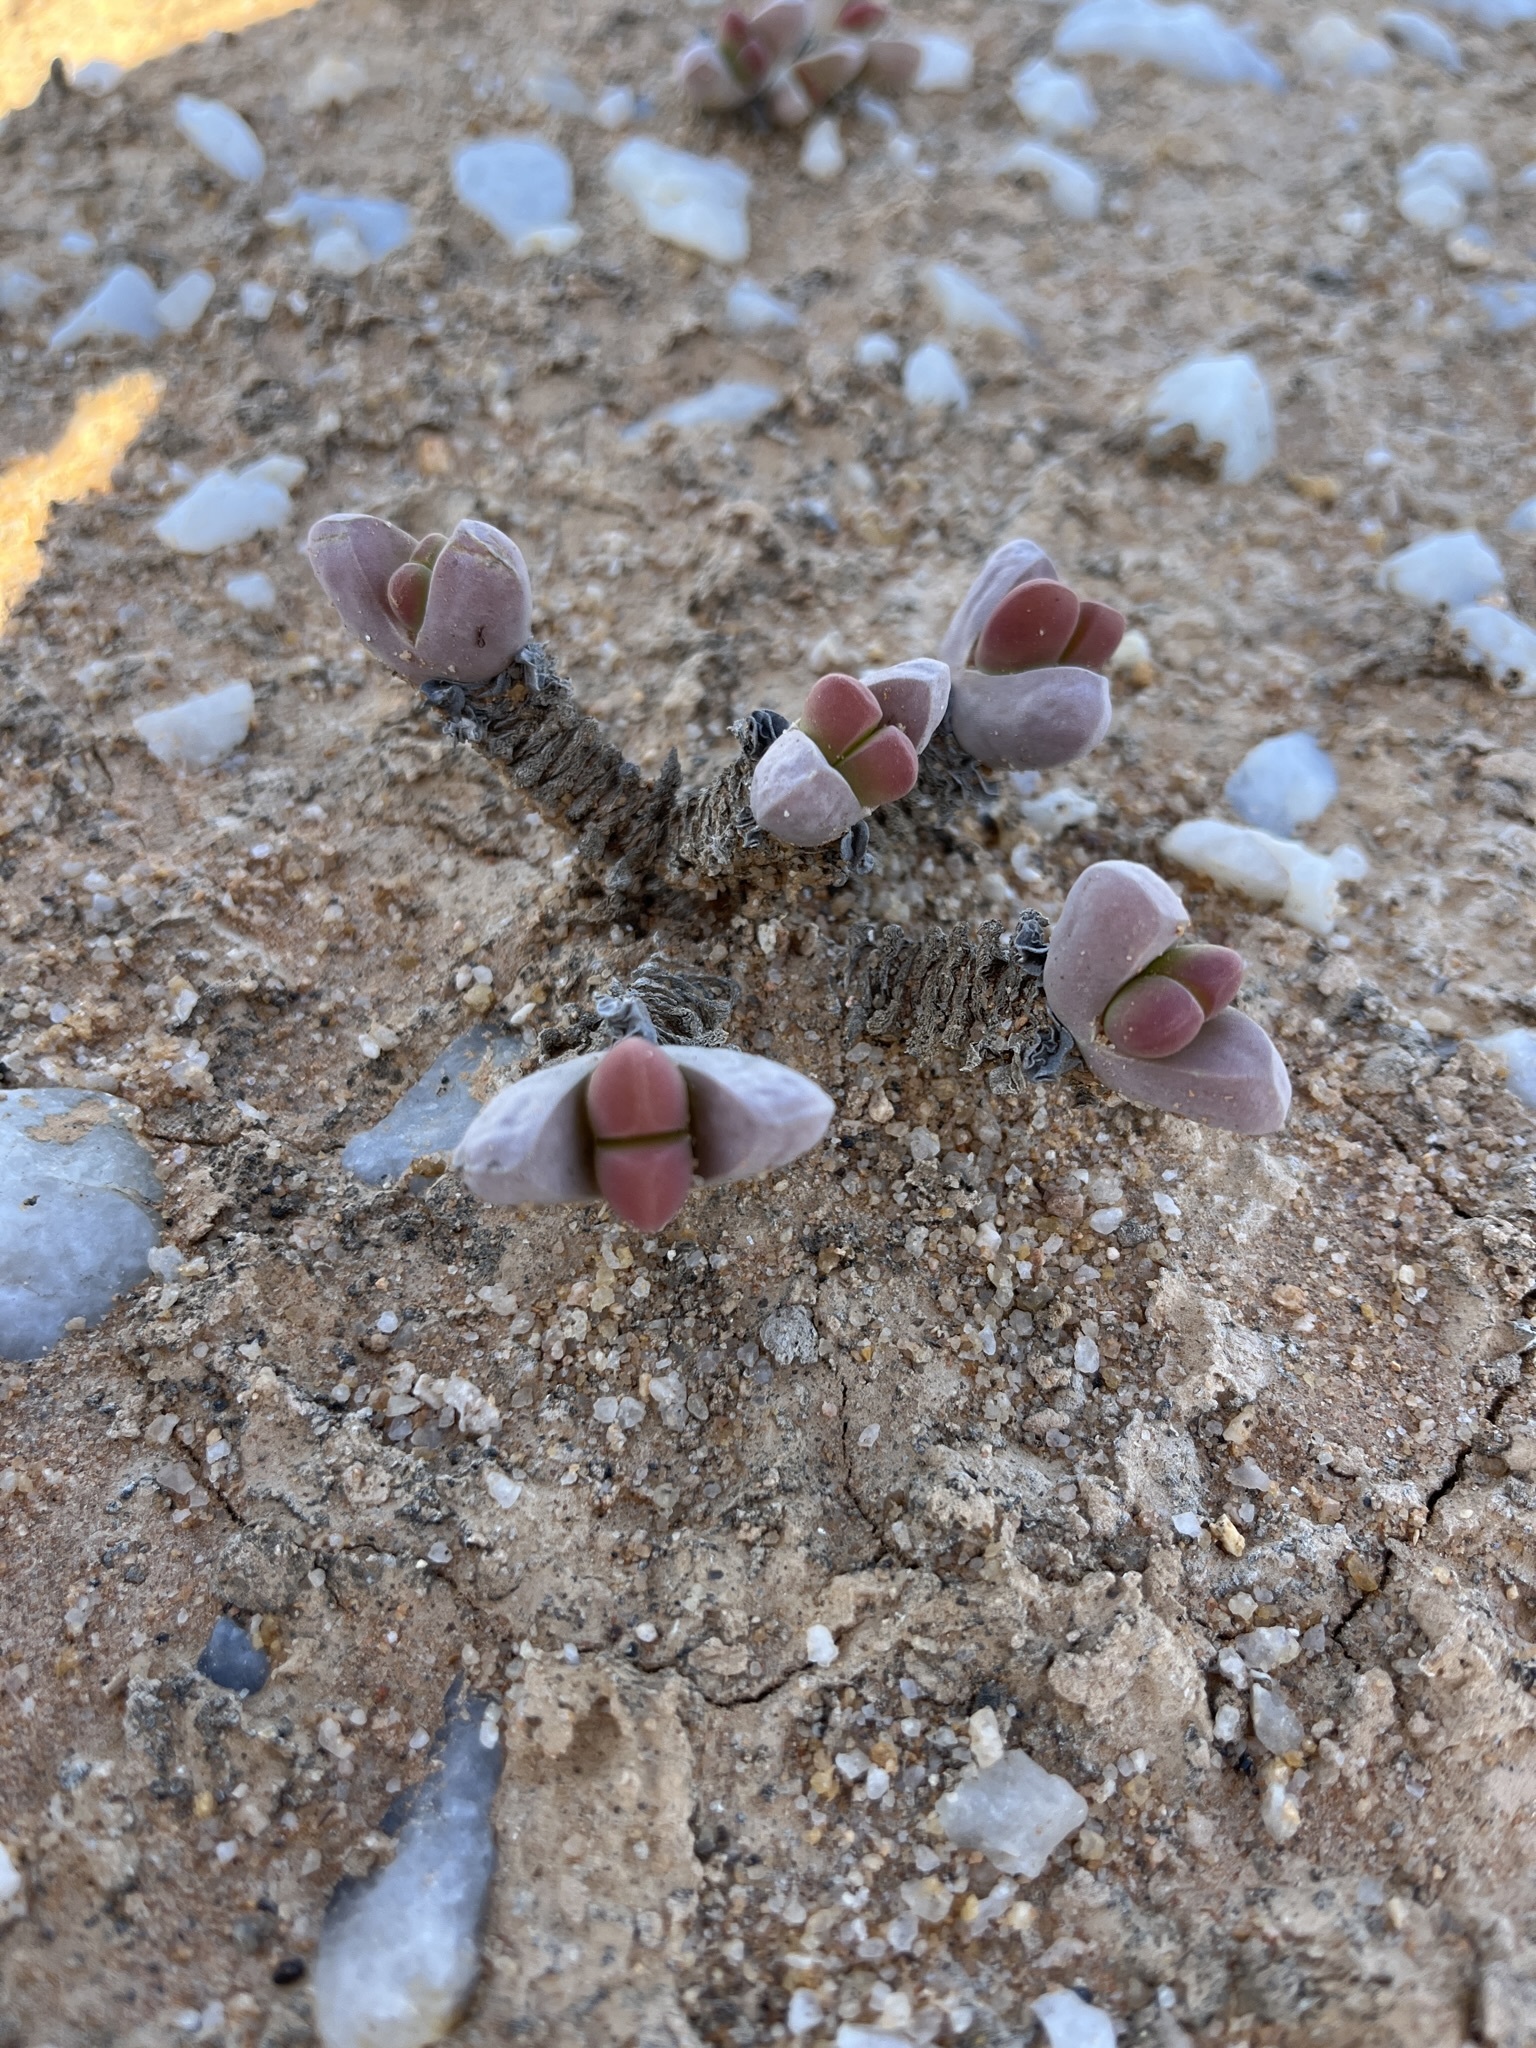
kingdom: Plantae
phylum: Tracheophyta
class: Magnoliopsida
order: Caryophyllales
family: Aizoaceae
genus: Jacobsenia
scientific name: Jacobsenia vaginata
